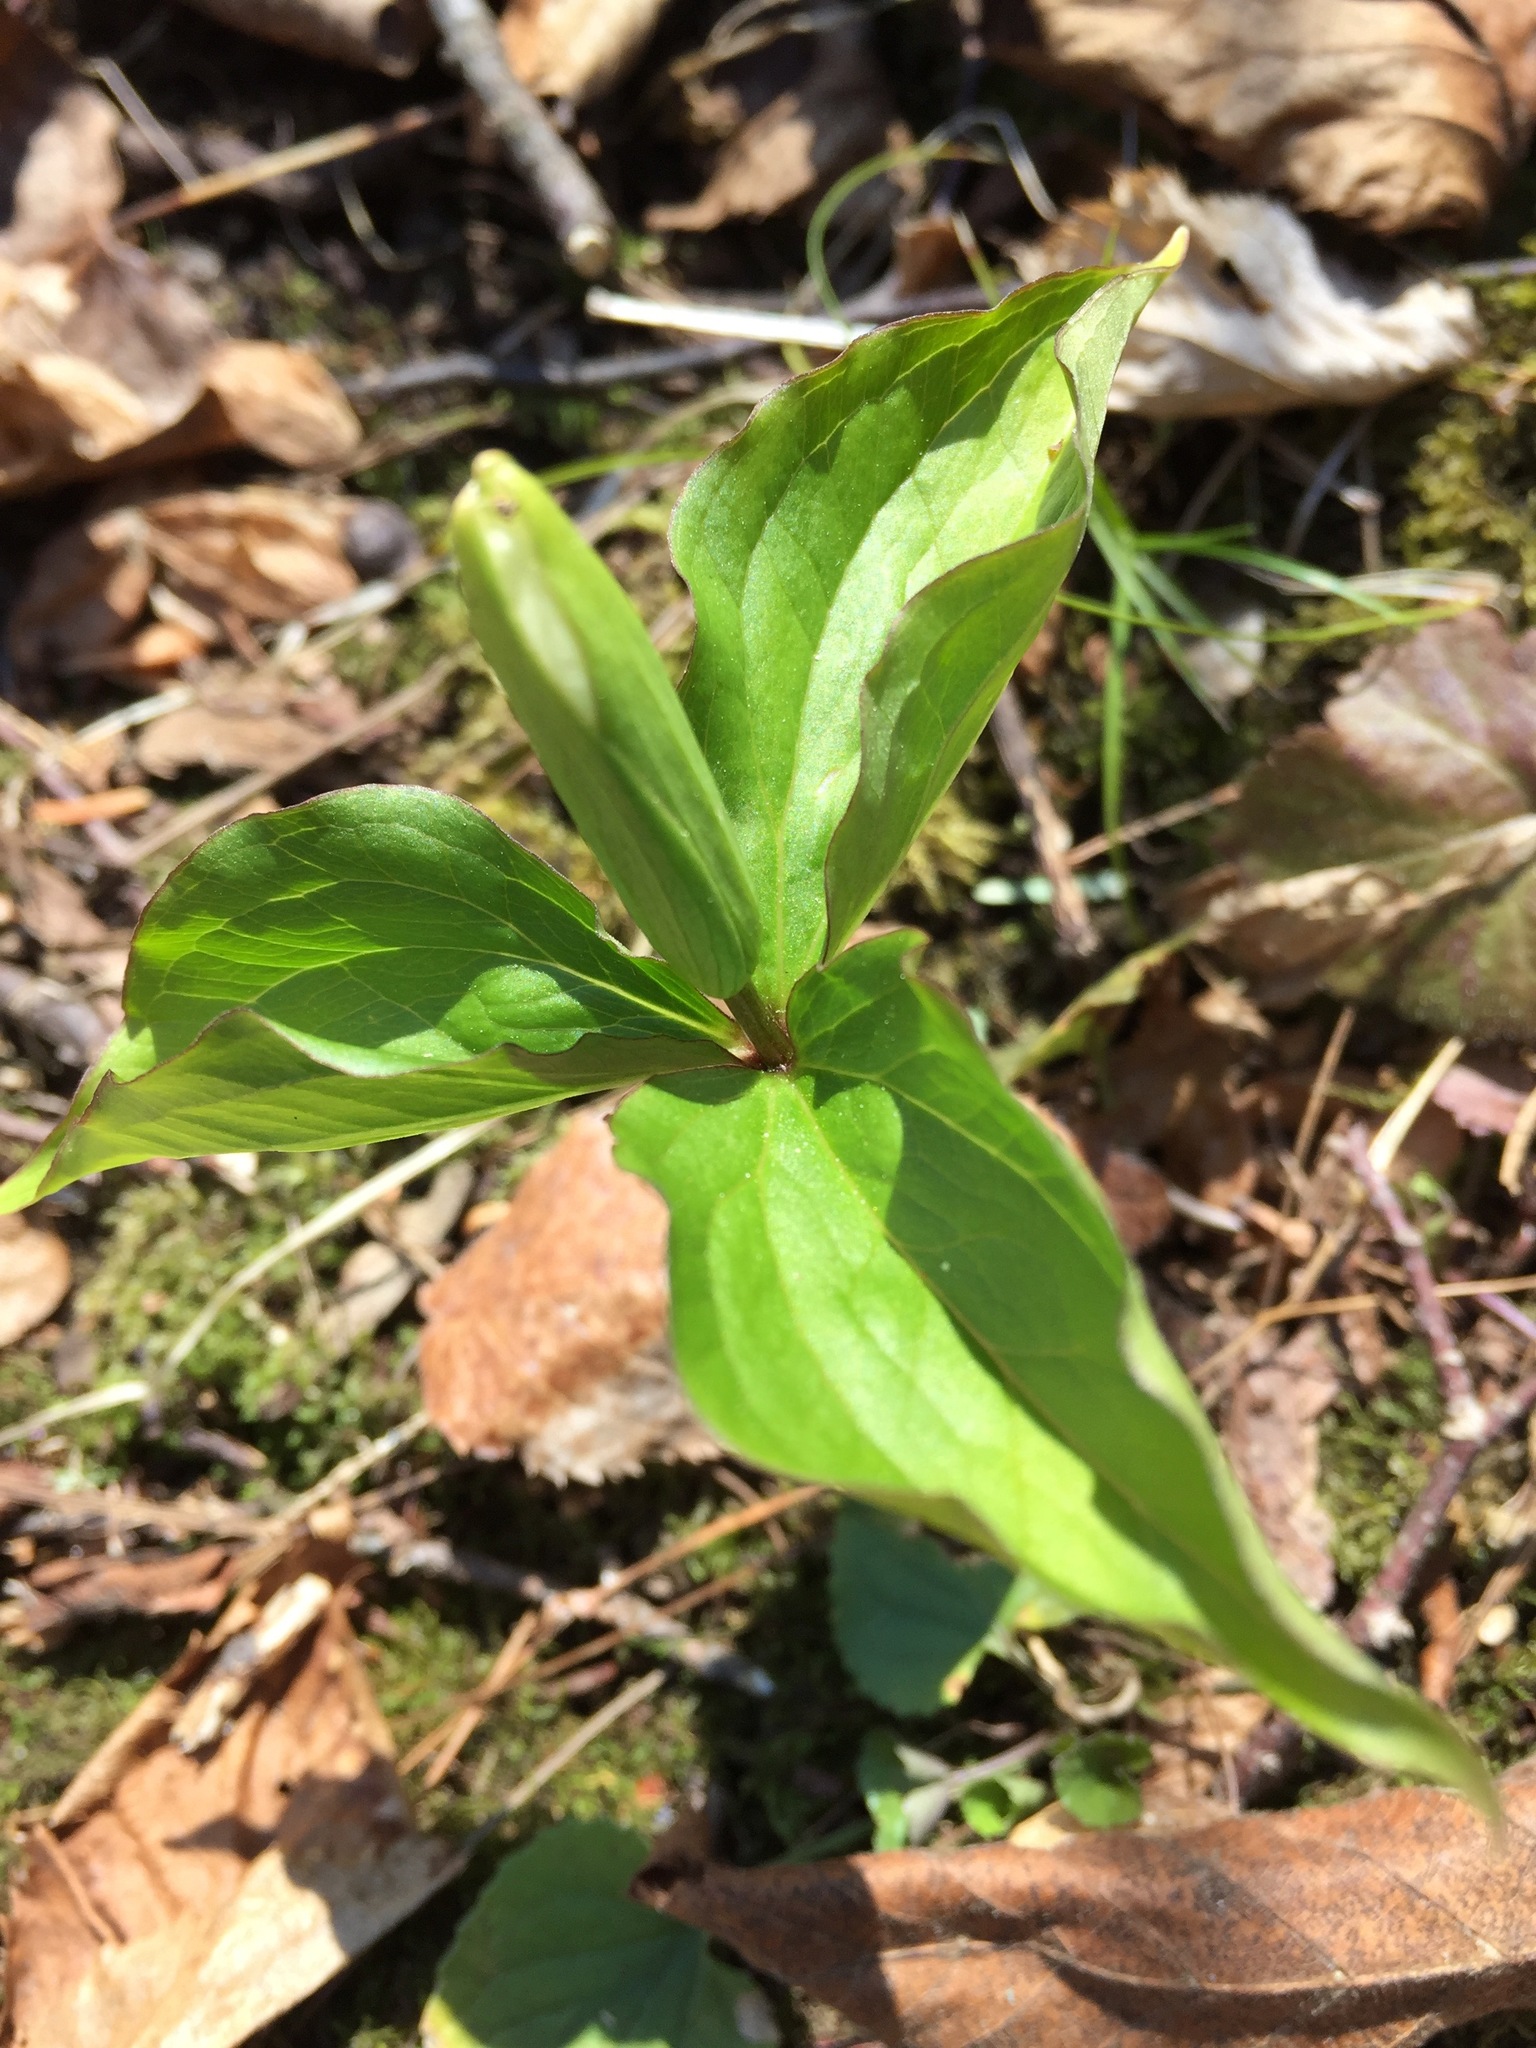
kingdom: Plantae
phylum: Tracheophyta
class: Liliopsida
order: Liliales
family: Melanthiaceae
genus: Trillium
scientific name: Trillium grandiflorum
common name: Great white trillium
